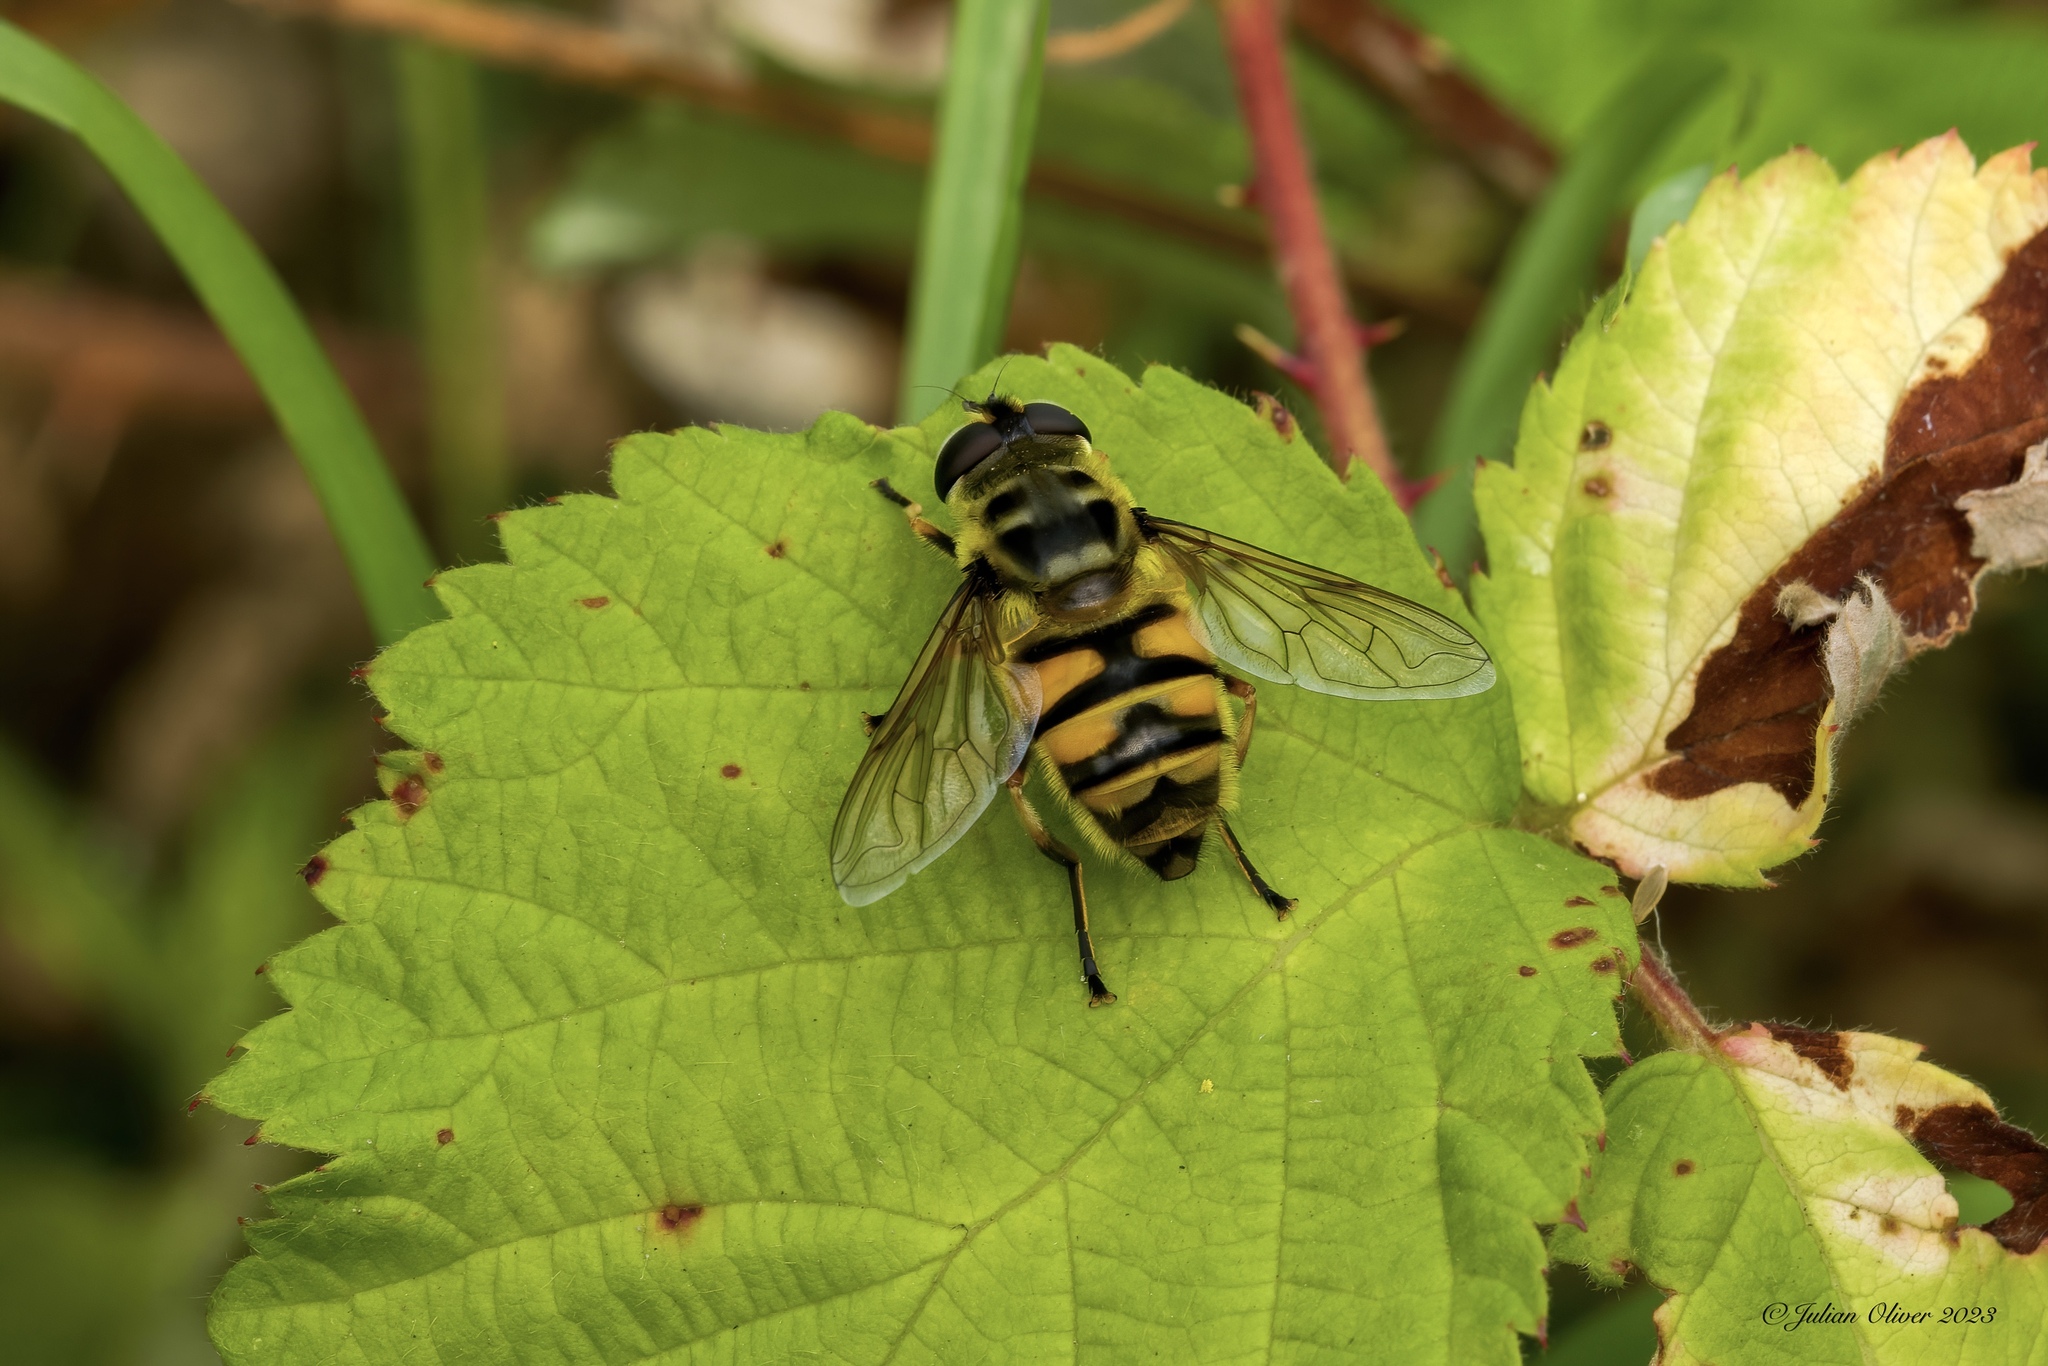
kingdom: Animalia
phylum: Arthropoda
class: Insecta
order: Diptera
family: Syrphidae
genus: Myathropa
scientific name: Myathropa florea
